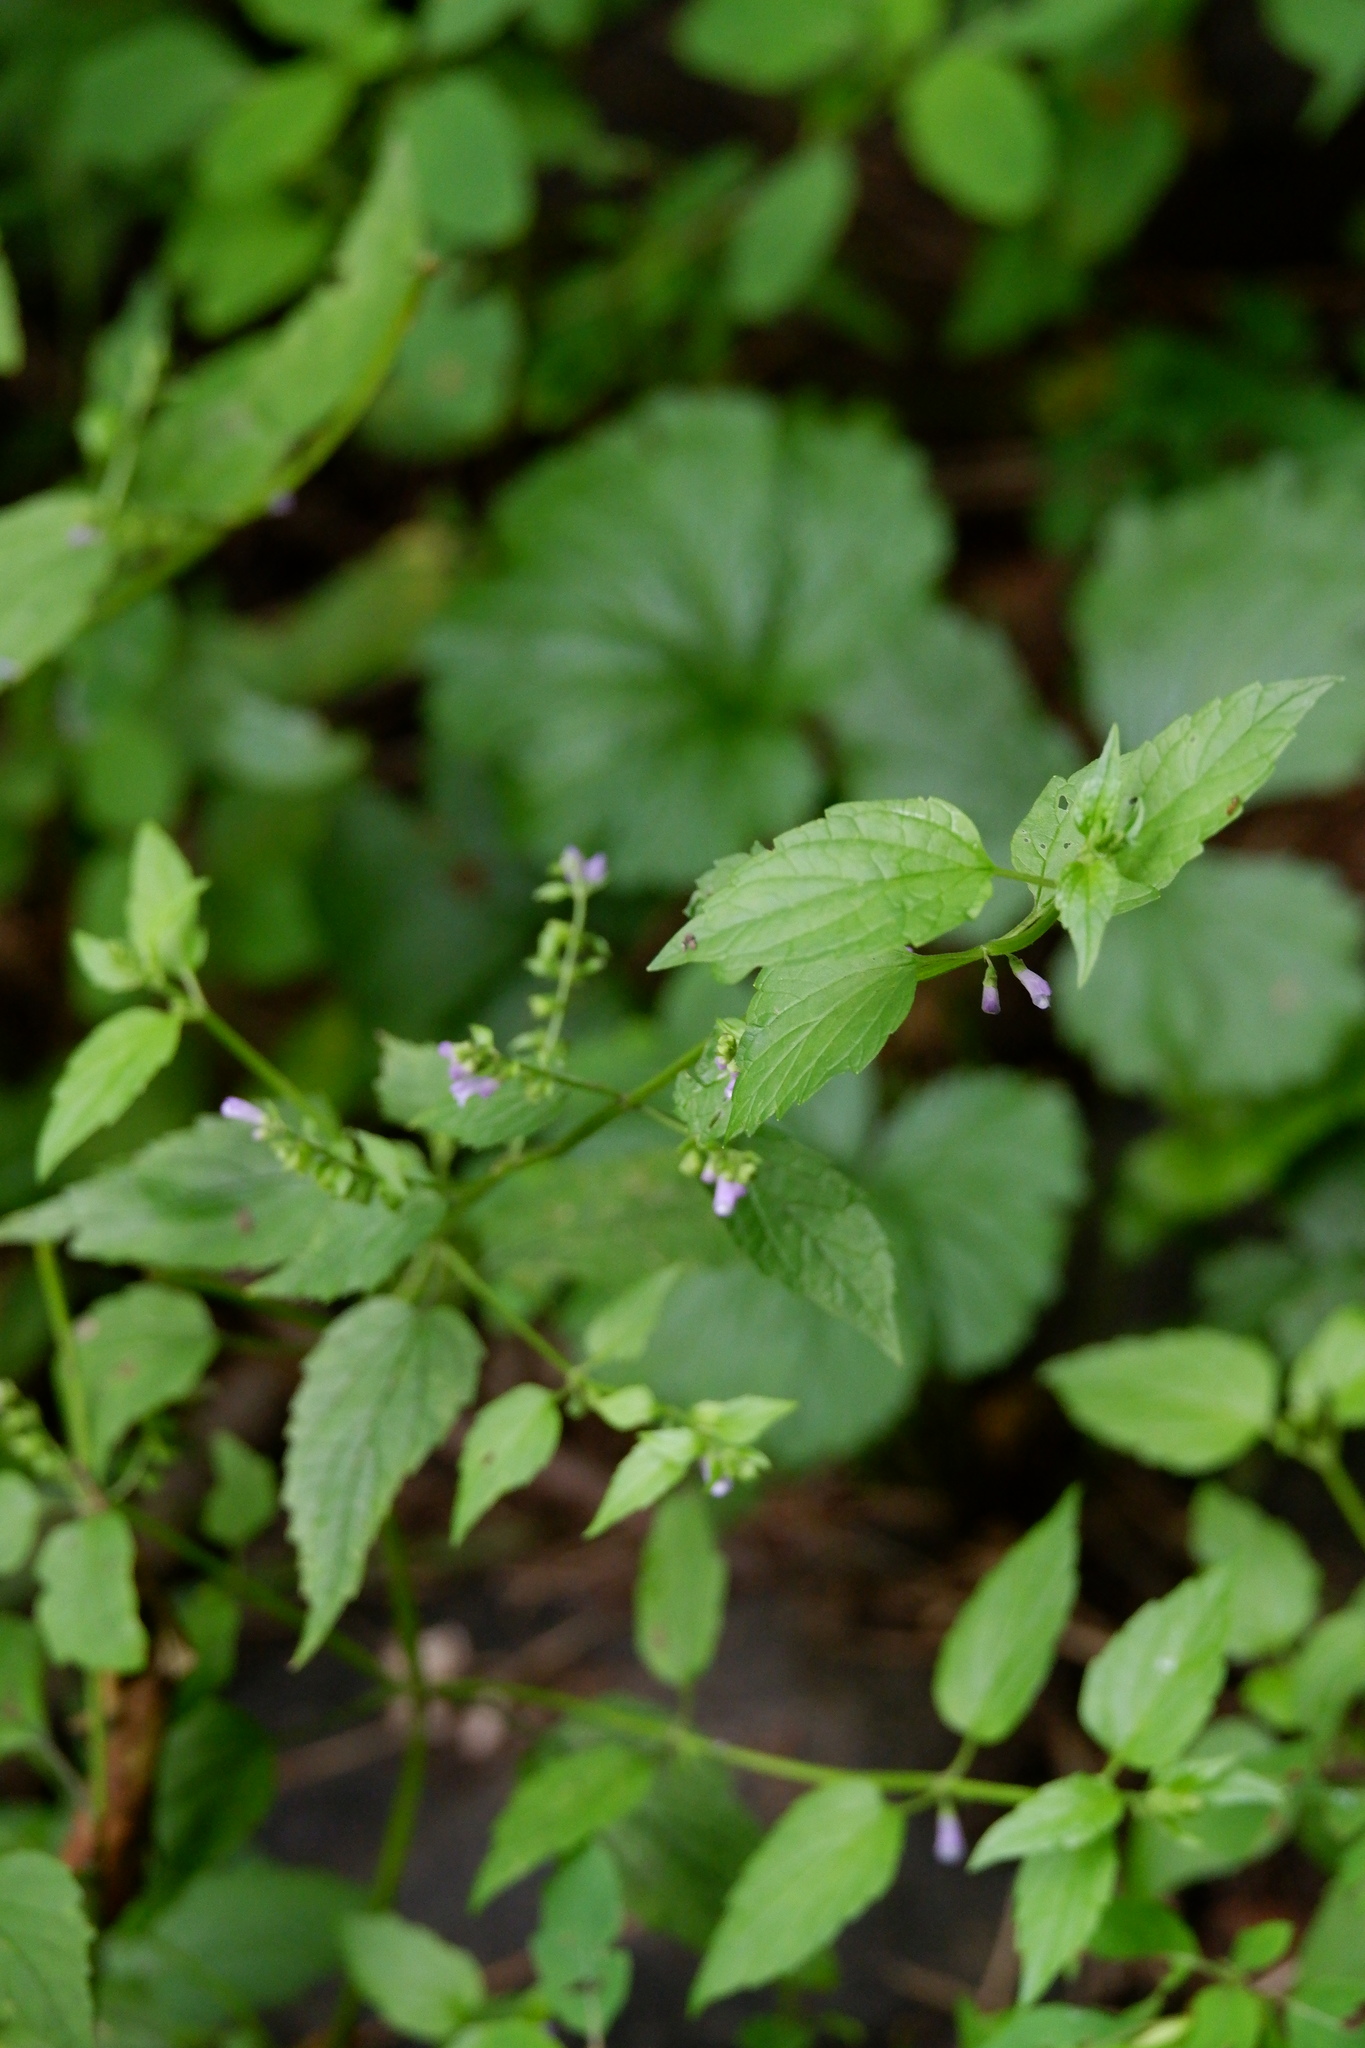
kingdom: Plantae
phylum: Tracheophyta
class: Magnoliopsida
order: Lamiales
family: Lamiaceae
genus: Scutellaria
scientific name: Scutellaria lateriflora
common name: Blue skullcap
